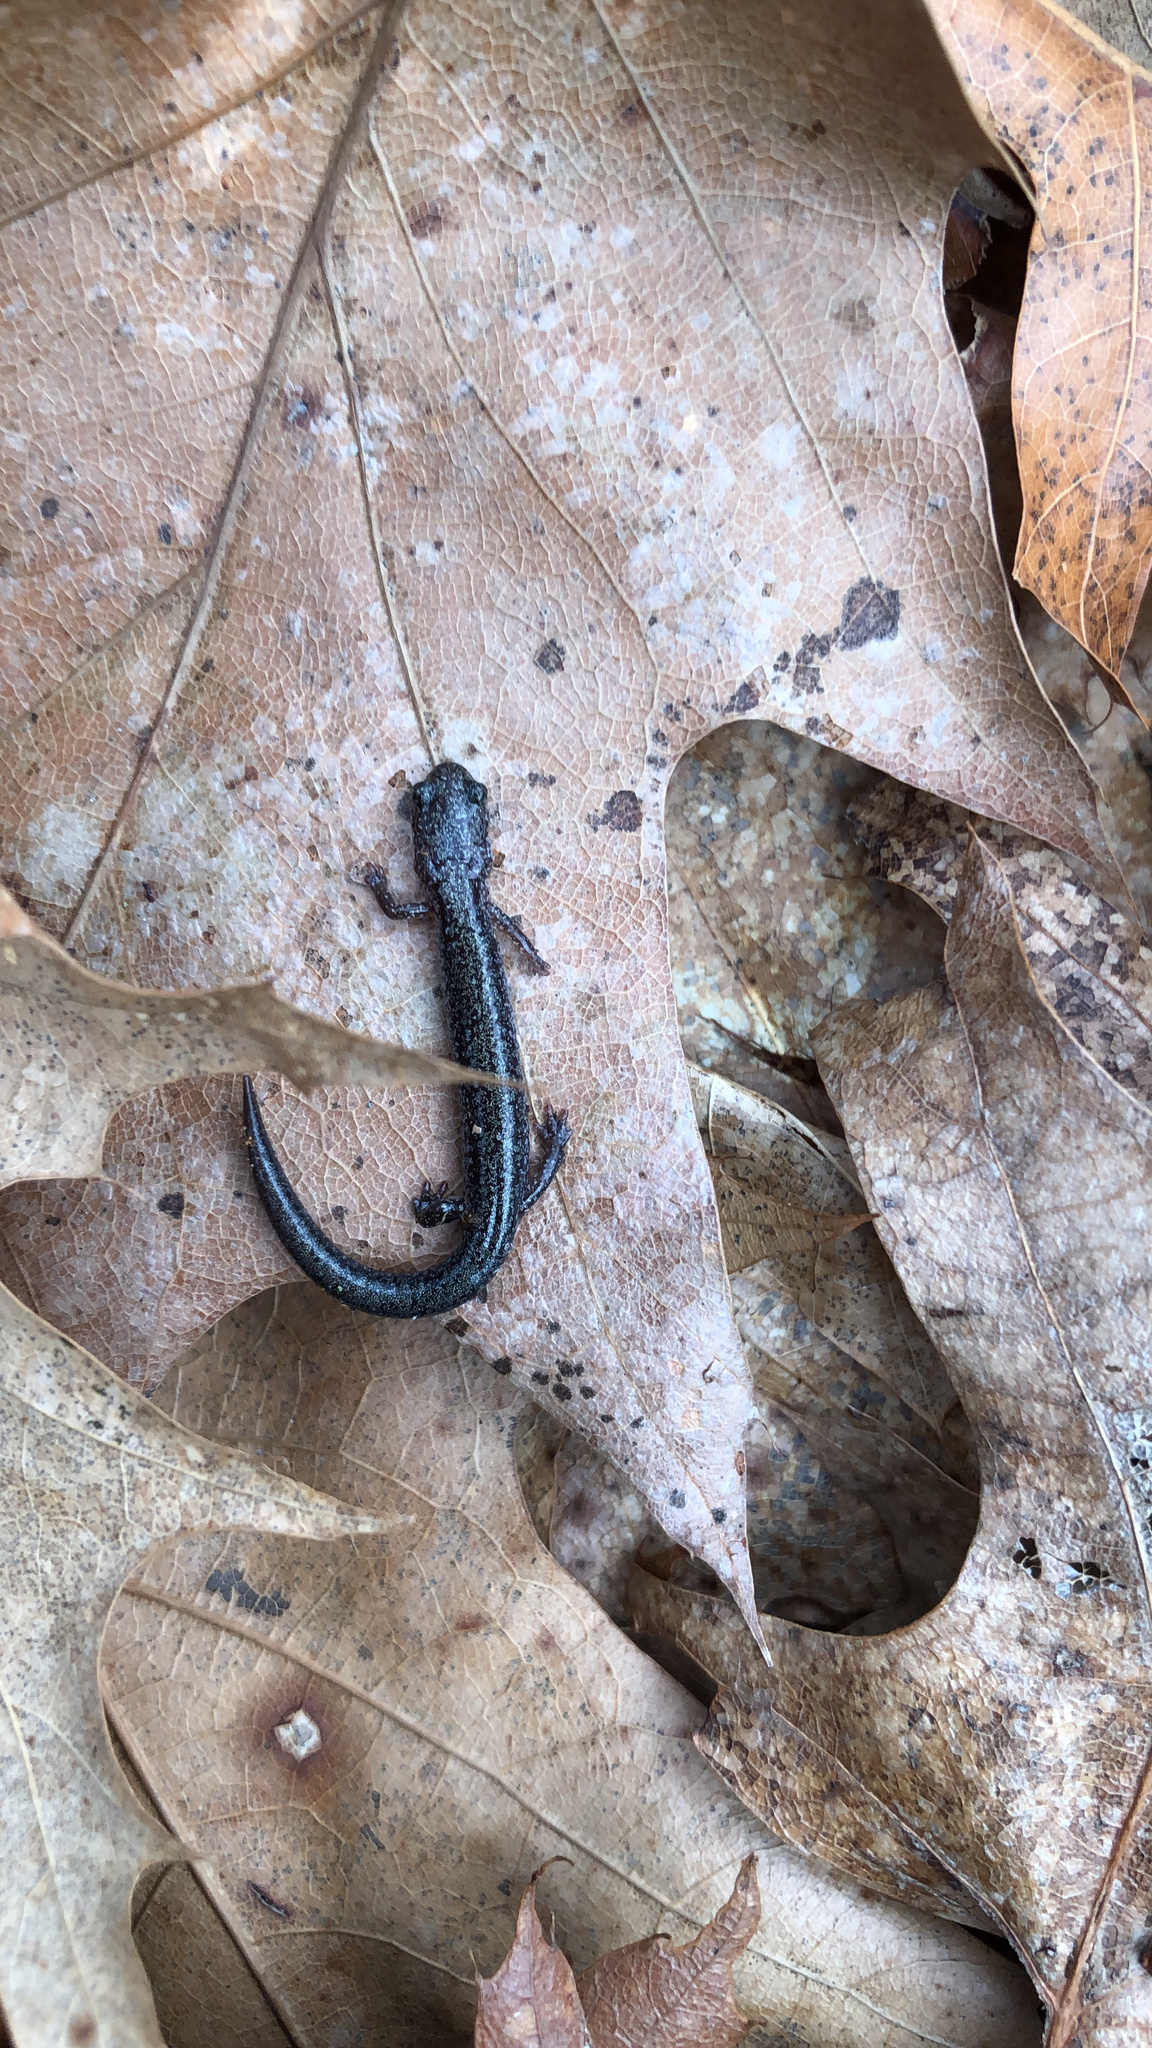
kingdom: Animalia
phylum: Chordata
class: Amphibia
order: Caudata
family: Plethodontidae
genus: Plethodon
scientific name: Plethodon cinereus
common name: Redback salamander
